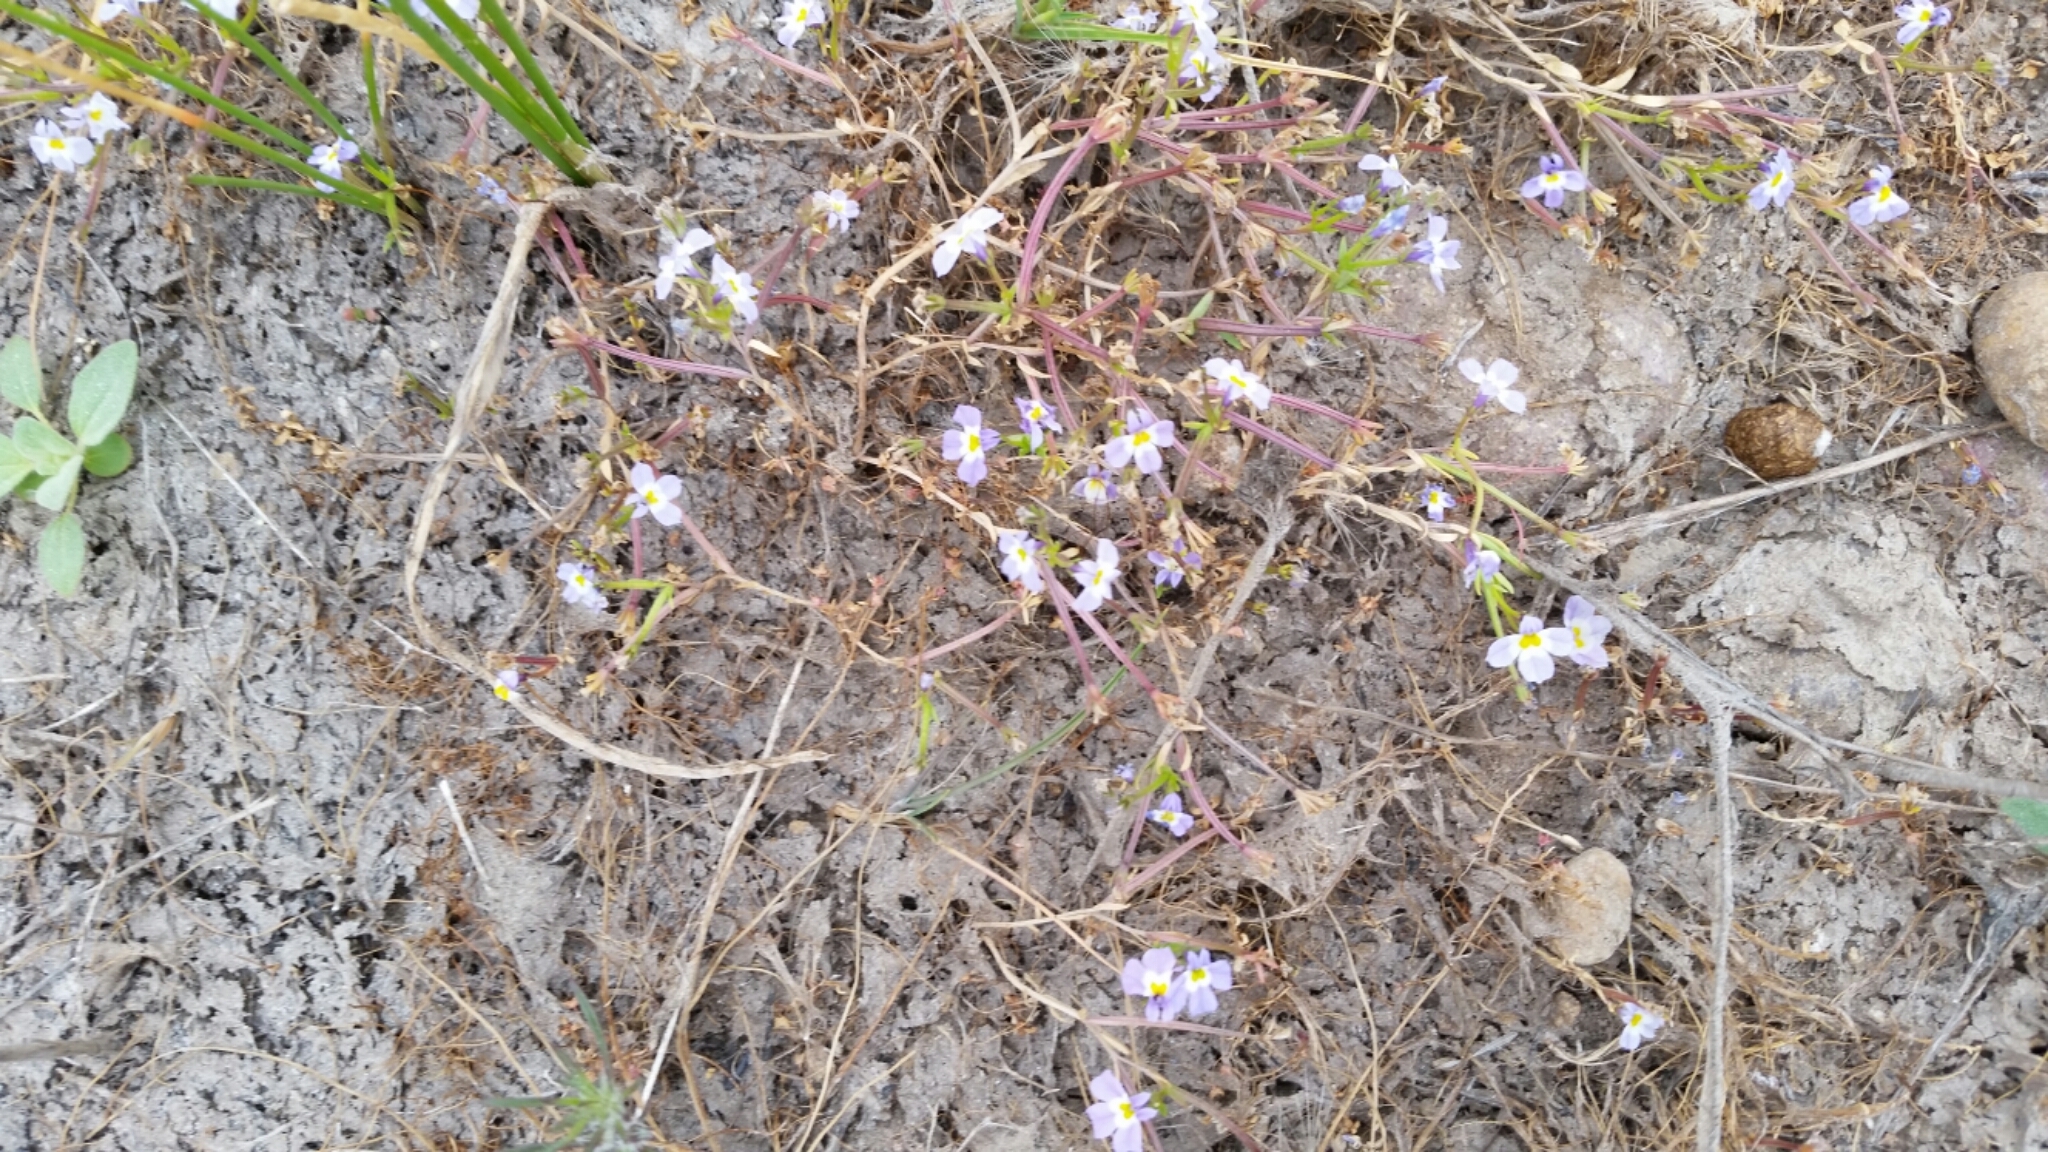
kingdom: Plantae
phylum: Tracheophyta
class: Magnoliopsida
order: Asterales
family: Campanulaceae
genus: Downingia
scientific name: Downingia cuspidata
